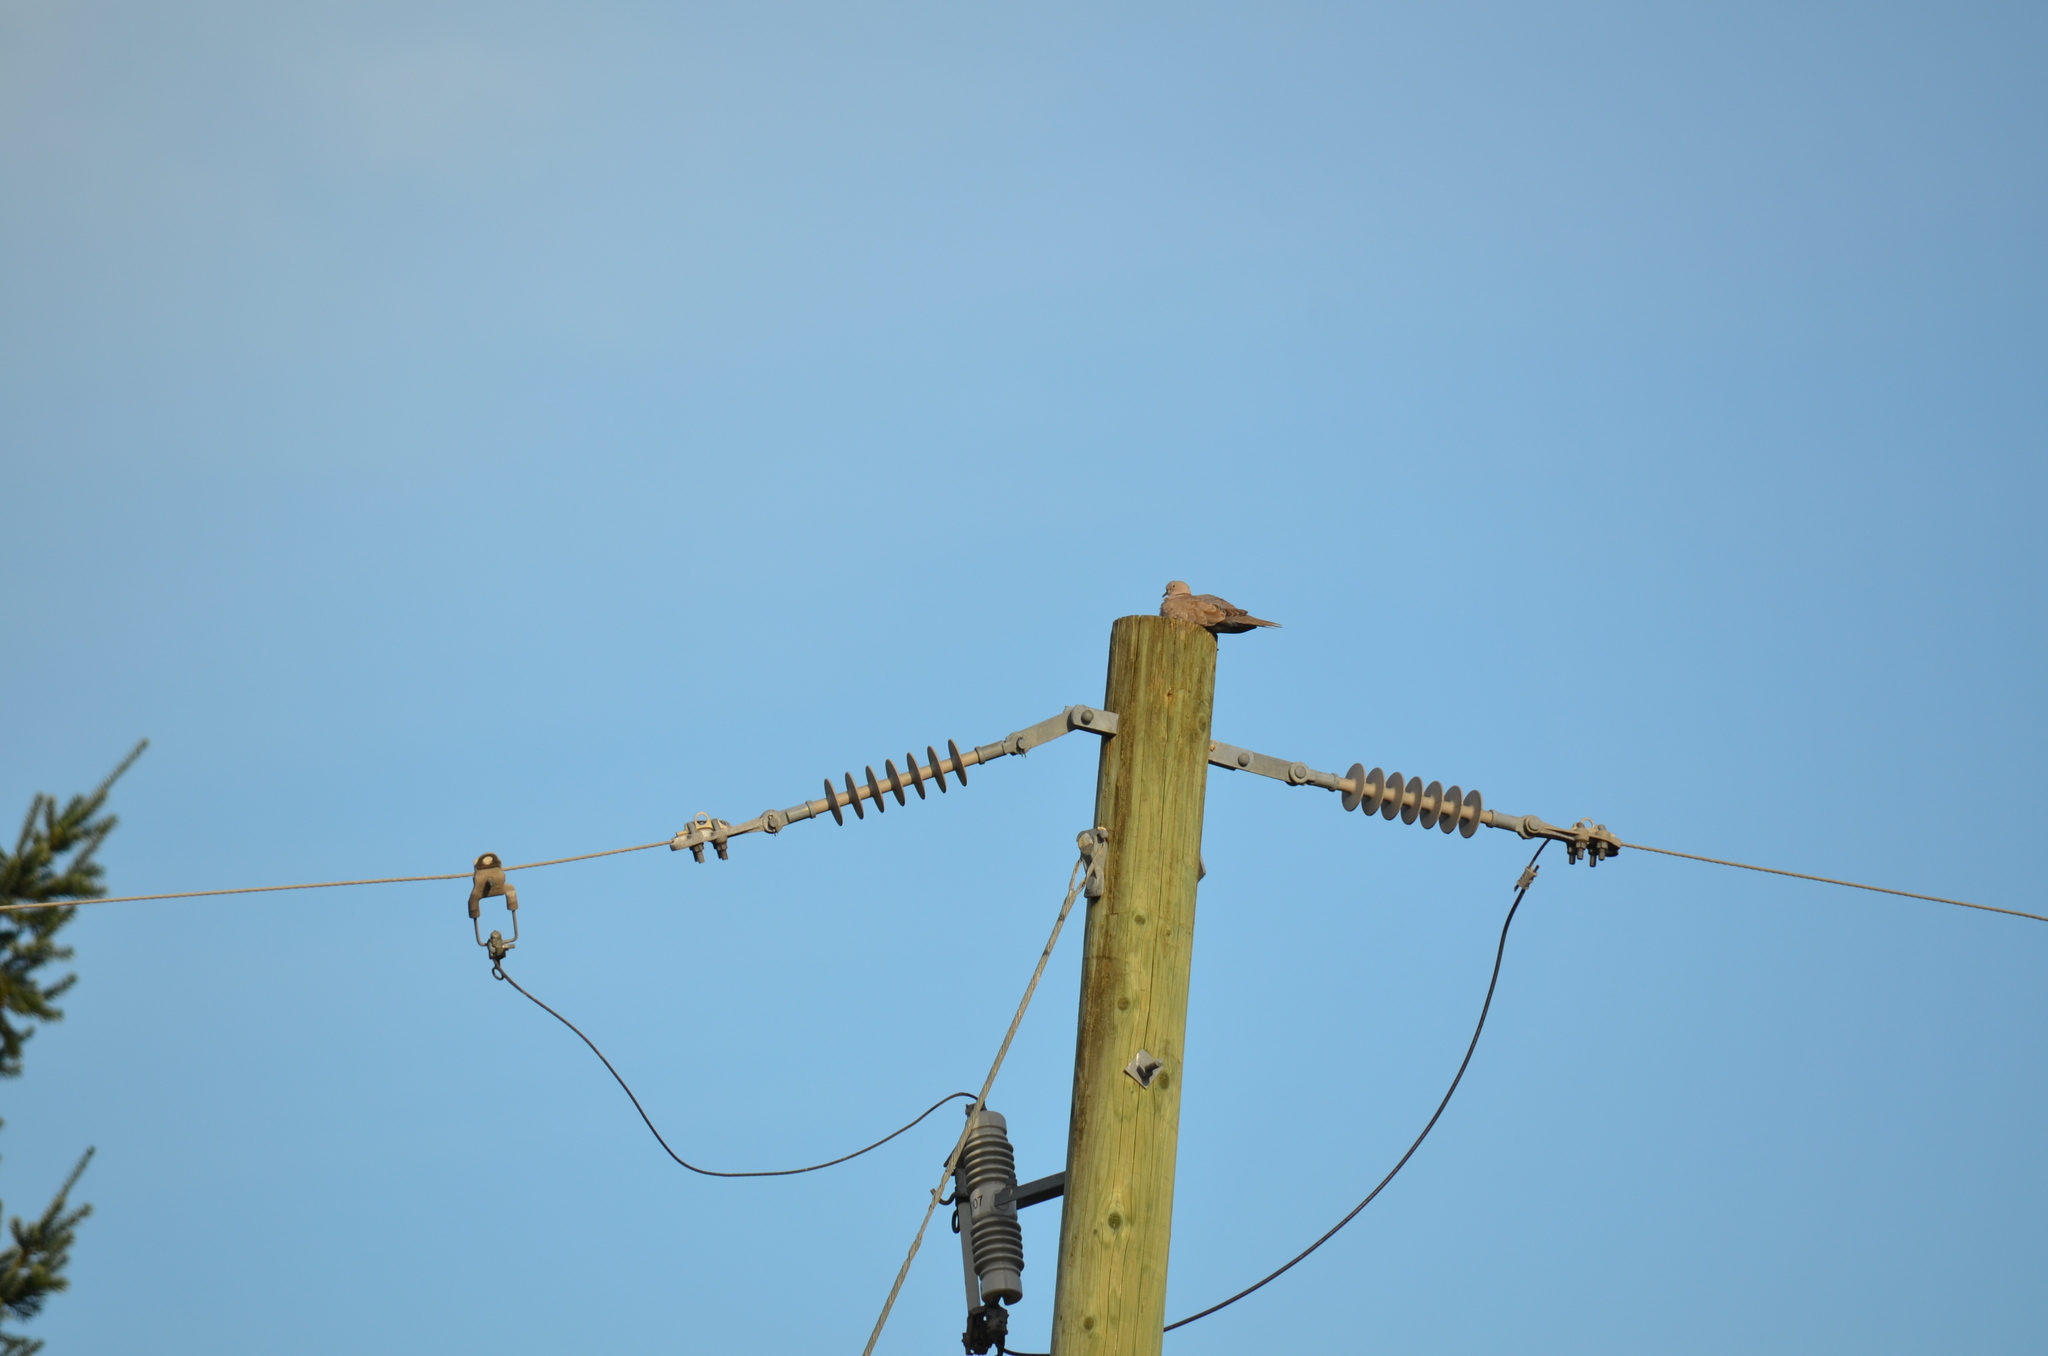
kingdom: Animalia
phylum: Chordata
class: Aves
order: Columbiformes
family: Columbidae
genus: Streptopelia
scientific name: Streptopelia decaocto
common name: Eurasian collared dove
